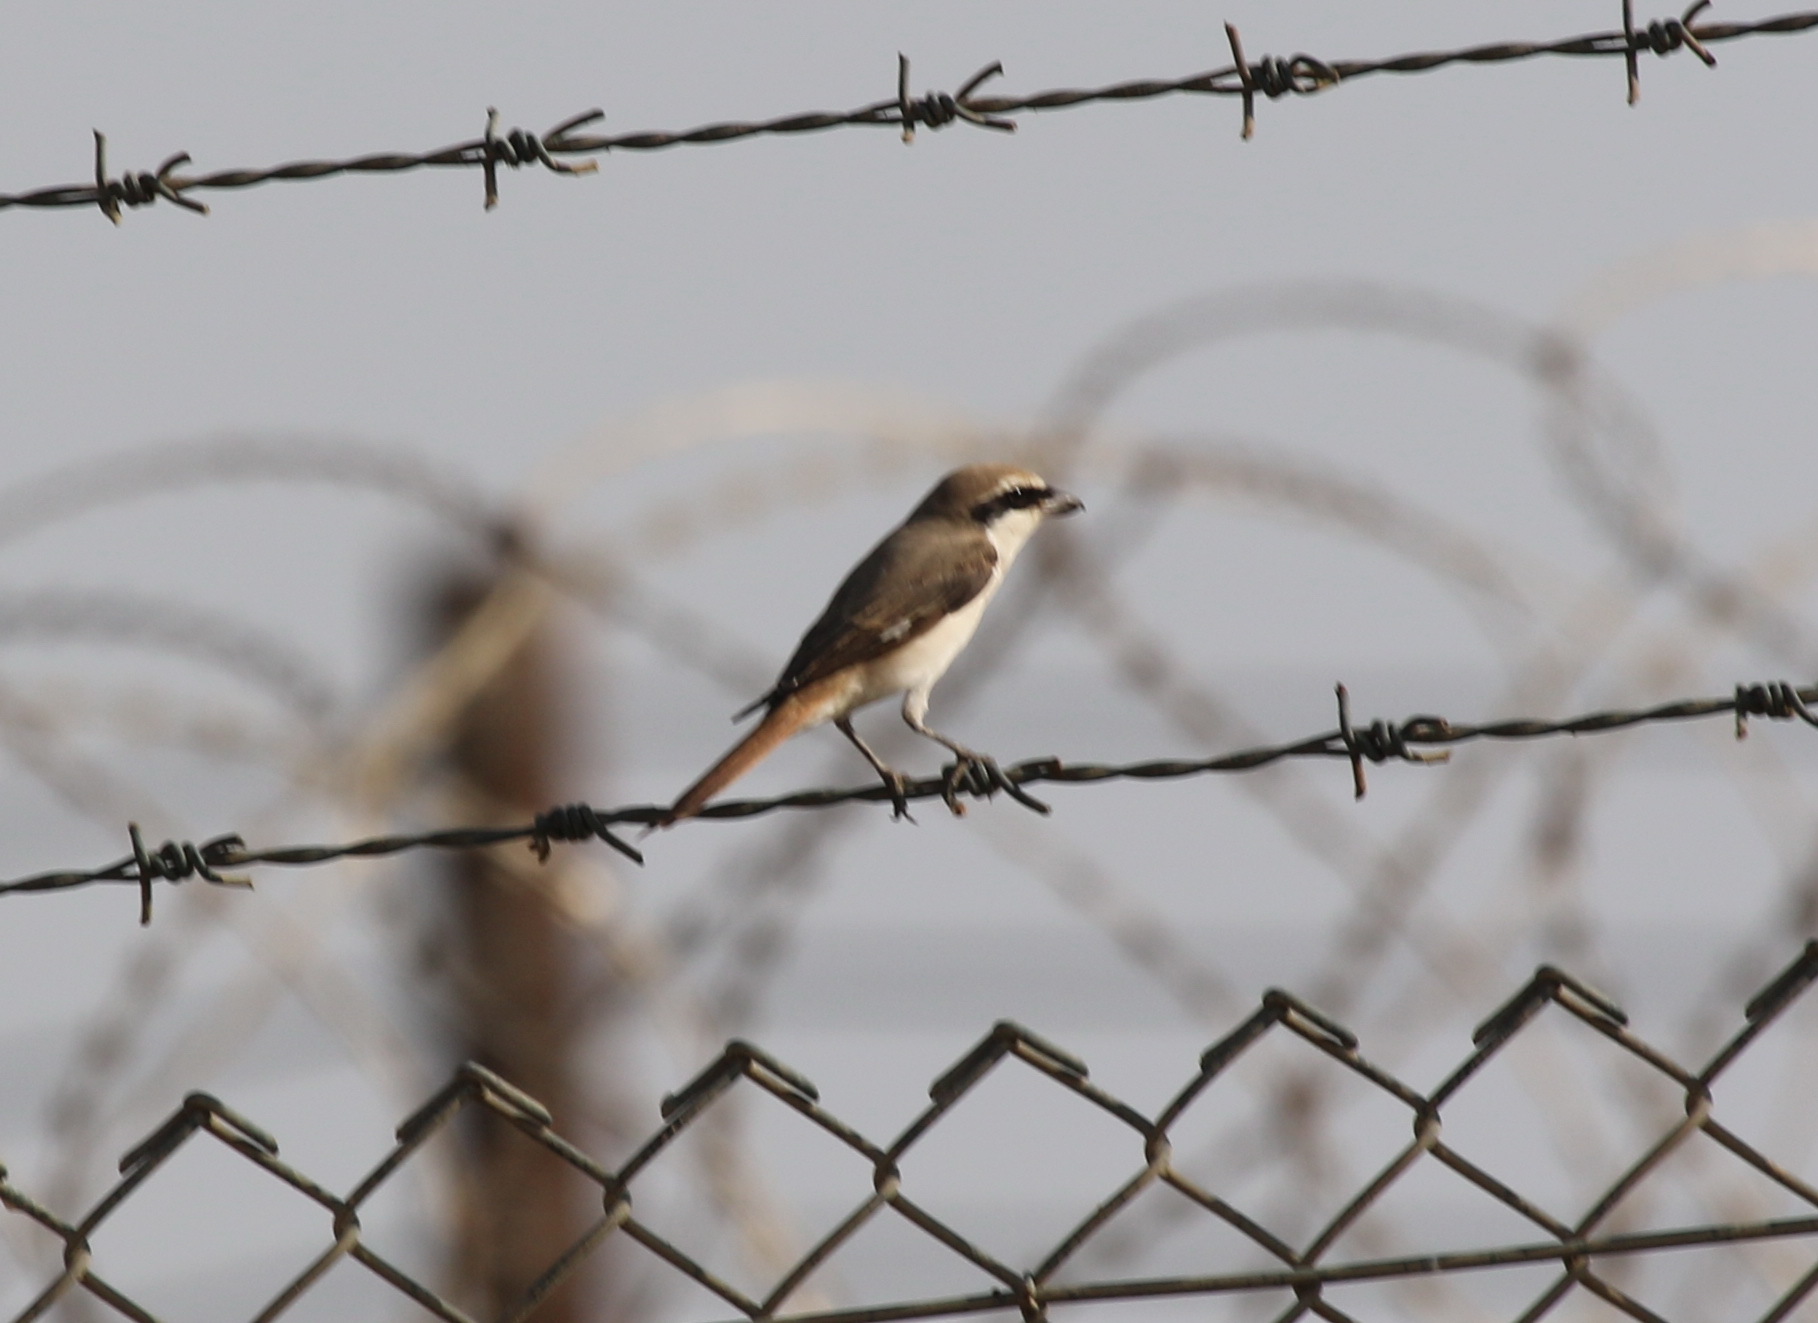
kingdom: Animalia
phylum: Chordata
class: Aves
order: Passeriformes
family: Laniidae
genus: Lanius
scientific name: Lanius phoenicuroides
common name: Red-tailed shrike
